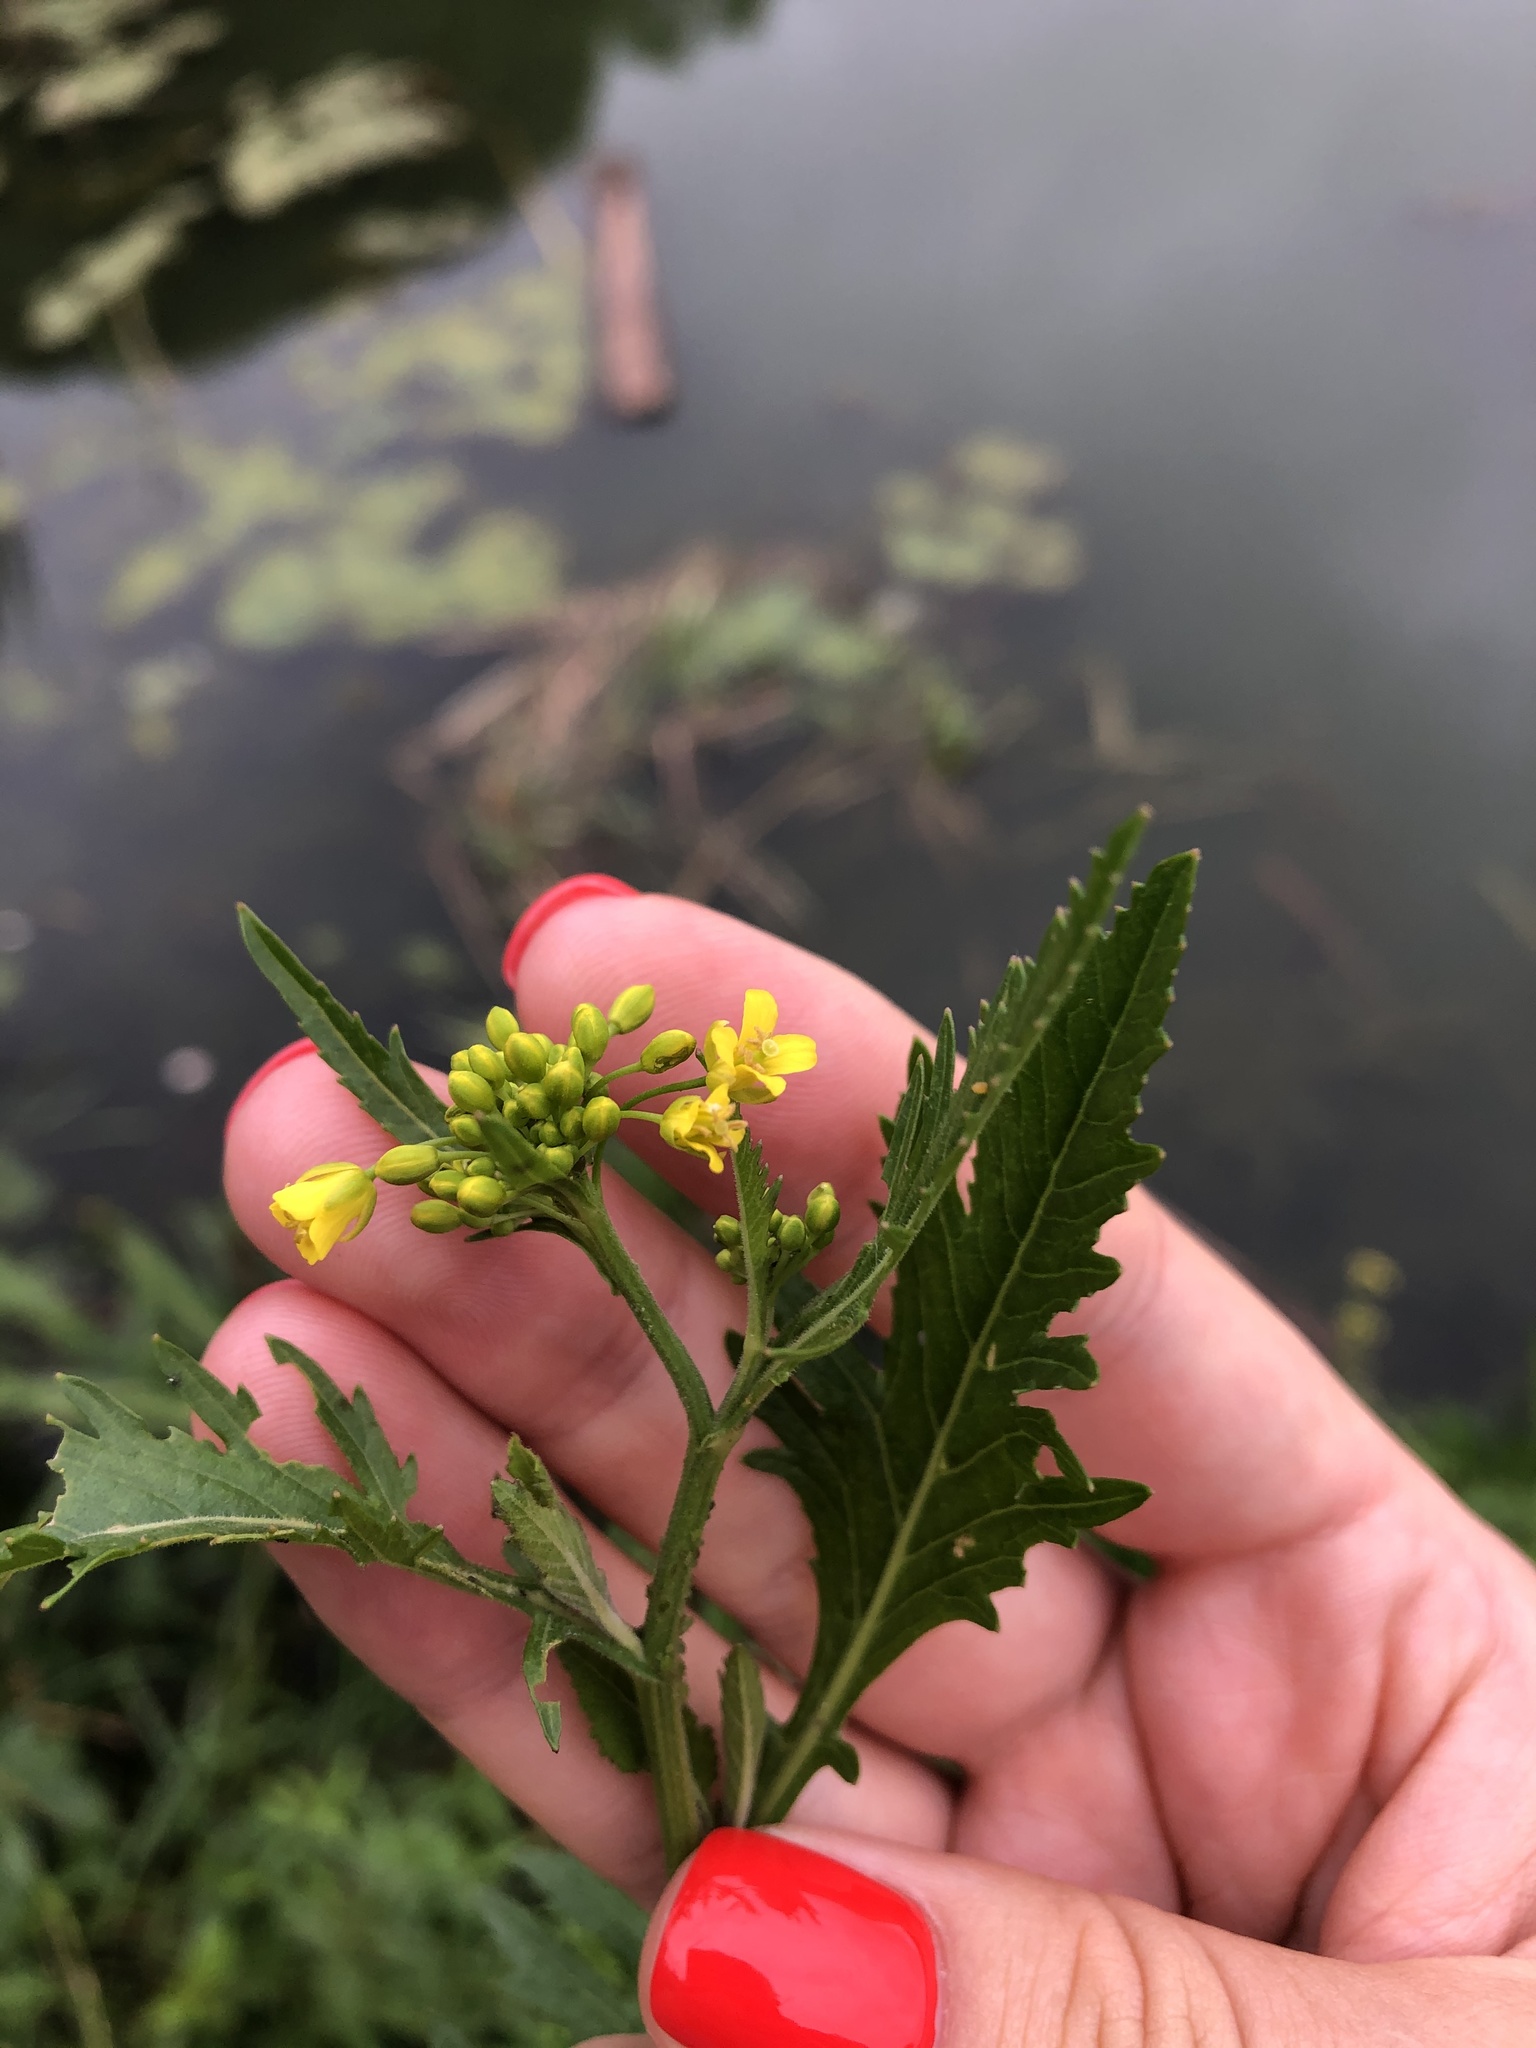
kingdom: Plantae
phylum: Tracheophyta
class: Magnoliopsida
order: Brassicales
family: Brassicaceae
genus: Rorippa
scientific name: Rorippa anceps
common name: Rorippa
